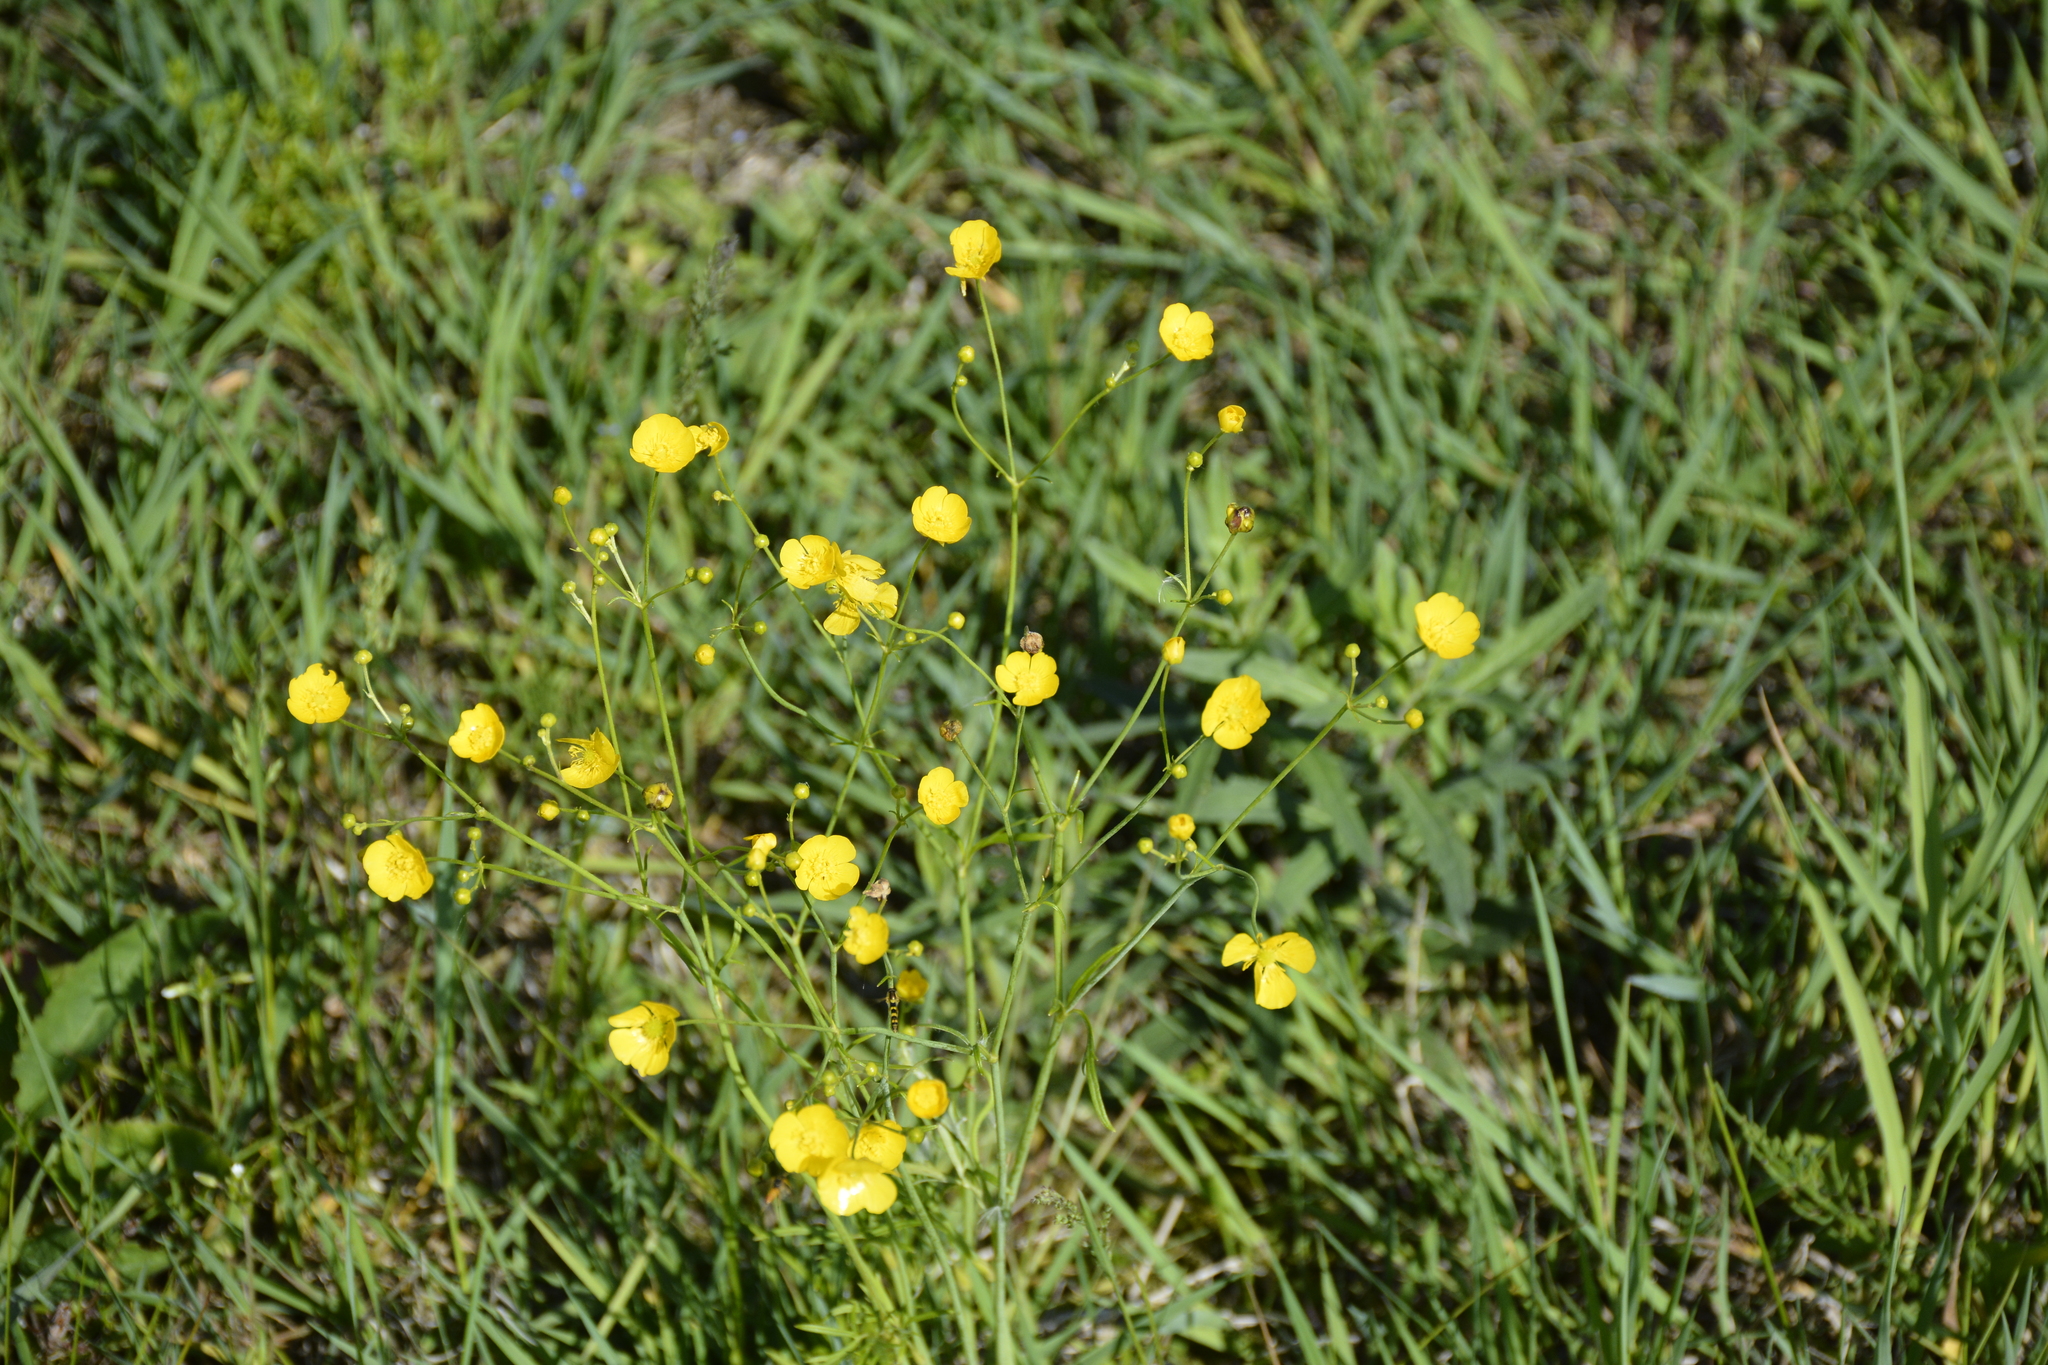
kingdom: Plantae
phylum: Tracheophyta
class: Magnoliopsida
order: Ranunculales
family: Ranunculaceae
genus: Ranunculus
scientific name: Ranunculus acris
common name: Meadow buttercup
